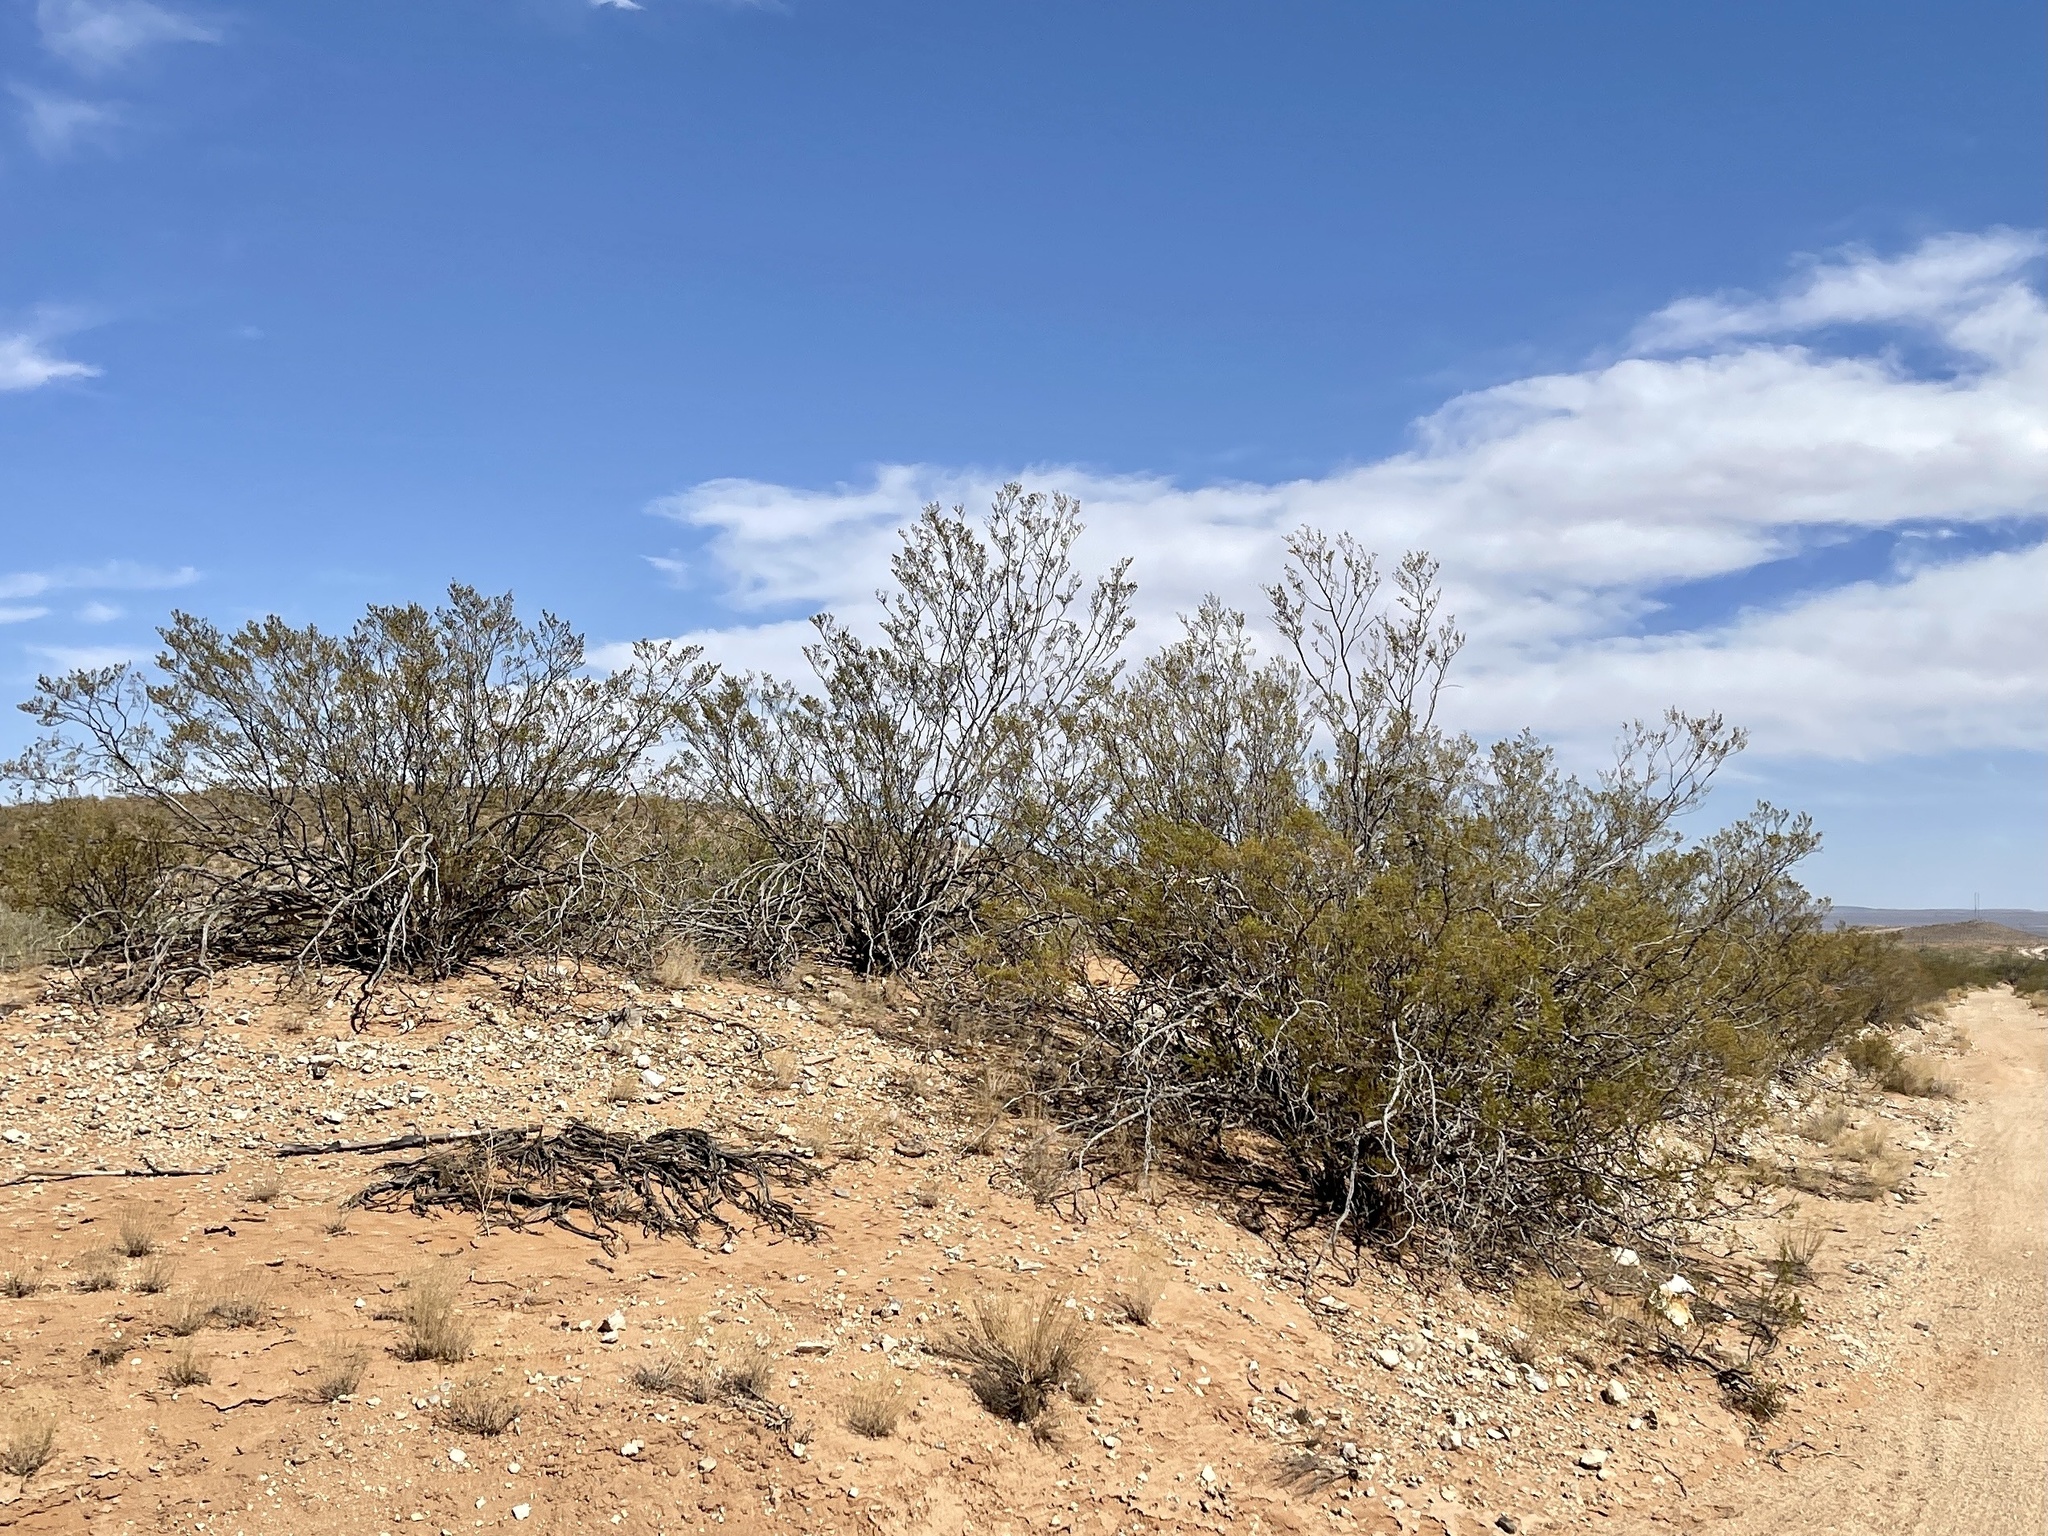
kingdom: Plantae
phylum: Tracheophyta
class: Magnoliopsida
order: Zygophyllales
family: Zygophyllaceae
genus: Larrea
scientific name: Larrea tridentata
